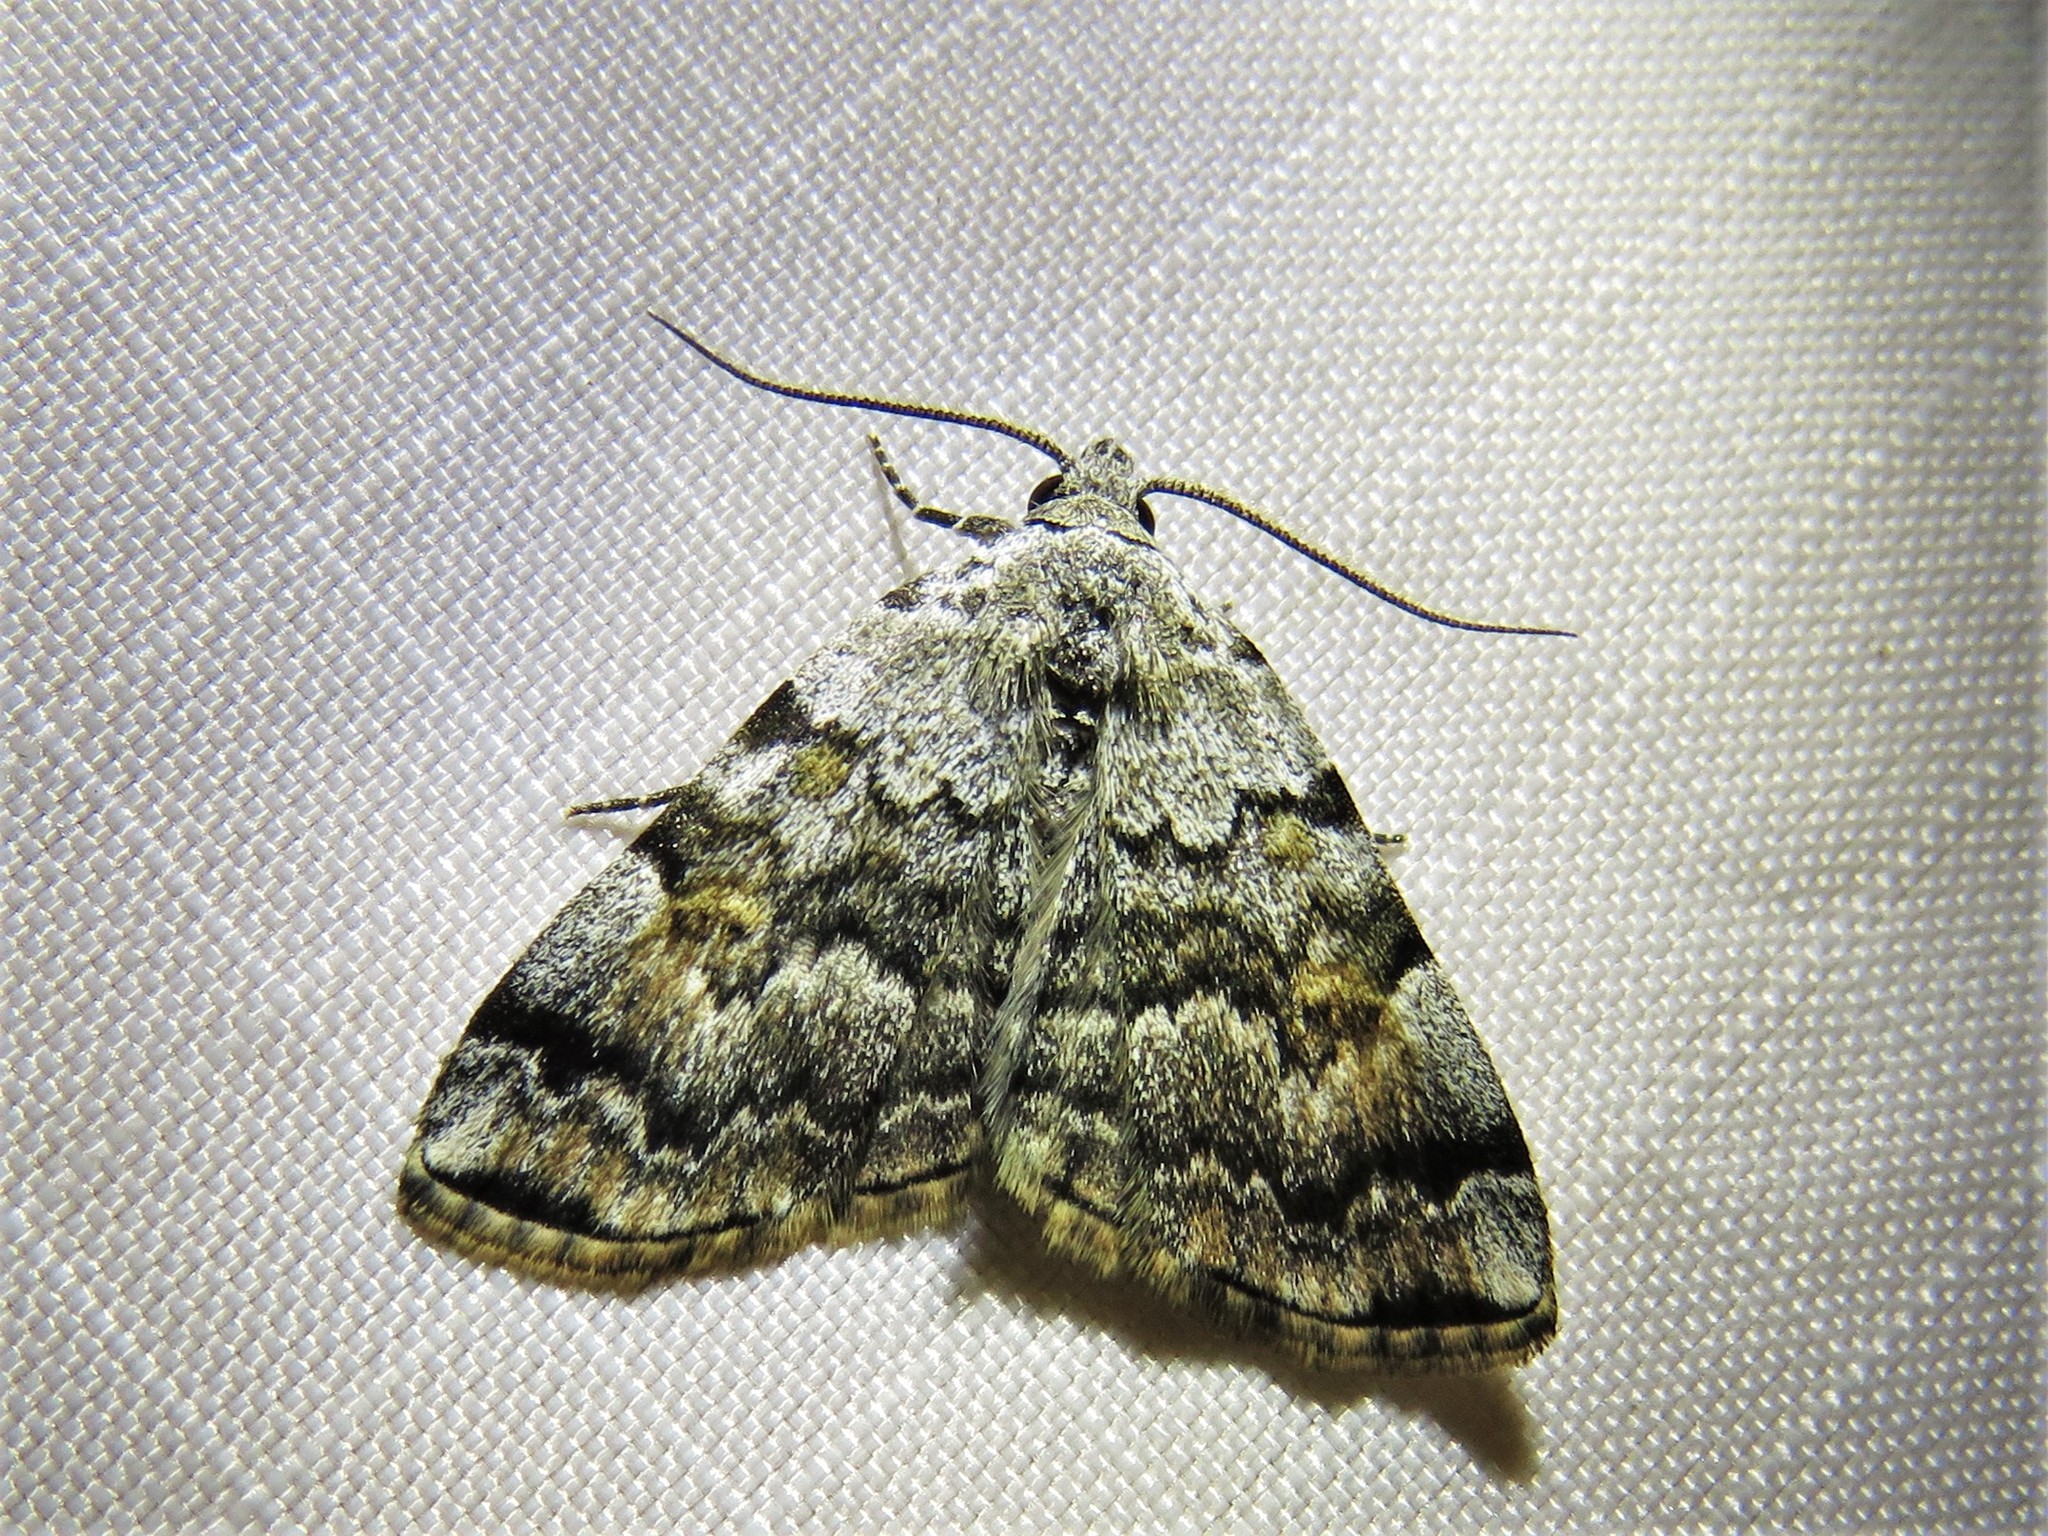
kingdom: Animalia
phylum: Arthropoda
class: Insecta
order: Lepidoptera
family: Erebidae
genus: Idia
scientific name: Idia americalis
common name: American idia moth
